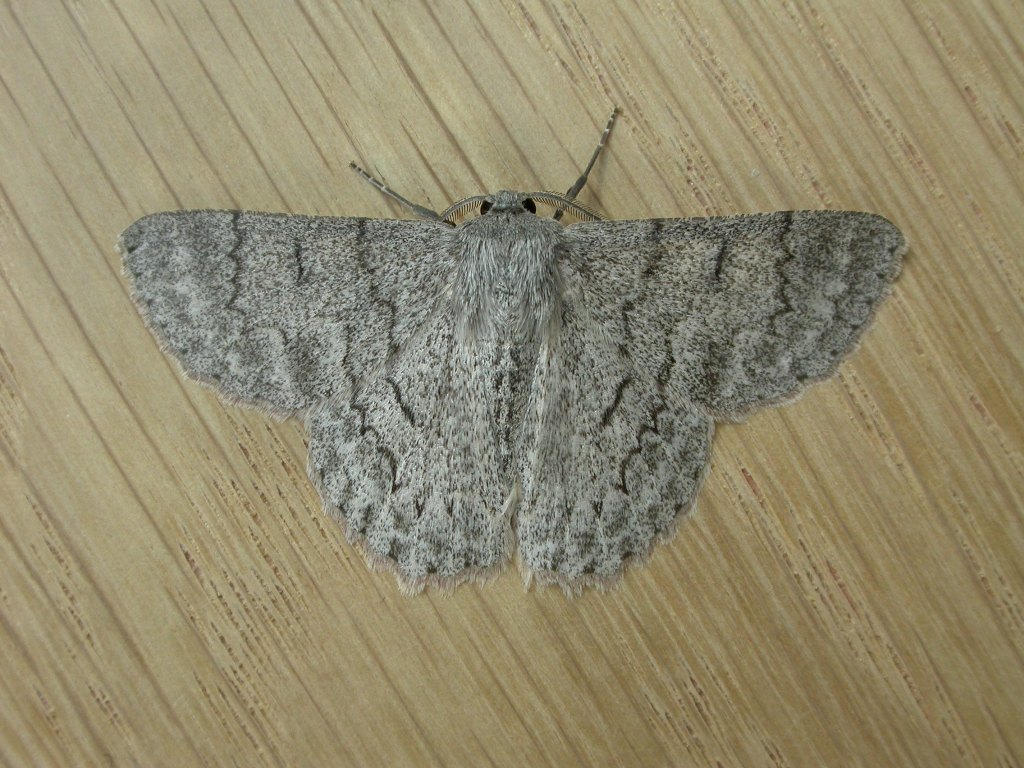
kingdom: Animalia
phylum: Arthropoda
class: Insecta
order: Lepidoptera
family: Geometridae
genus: Crypsiphona
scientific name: Crypsiphona ocultaria
